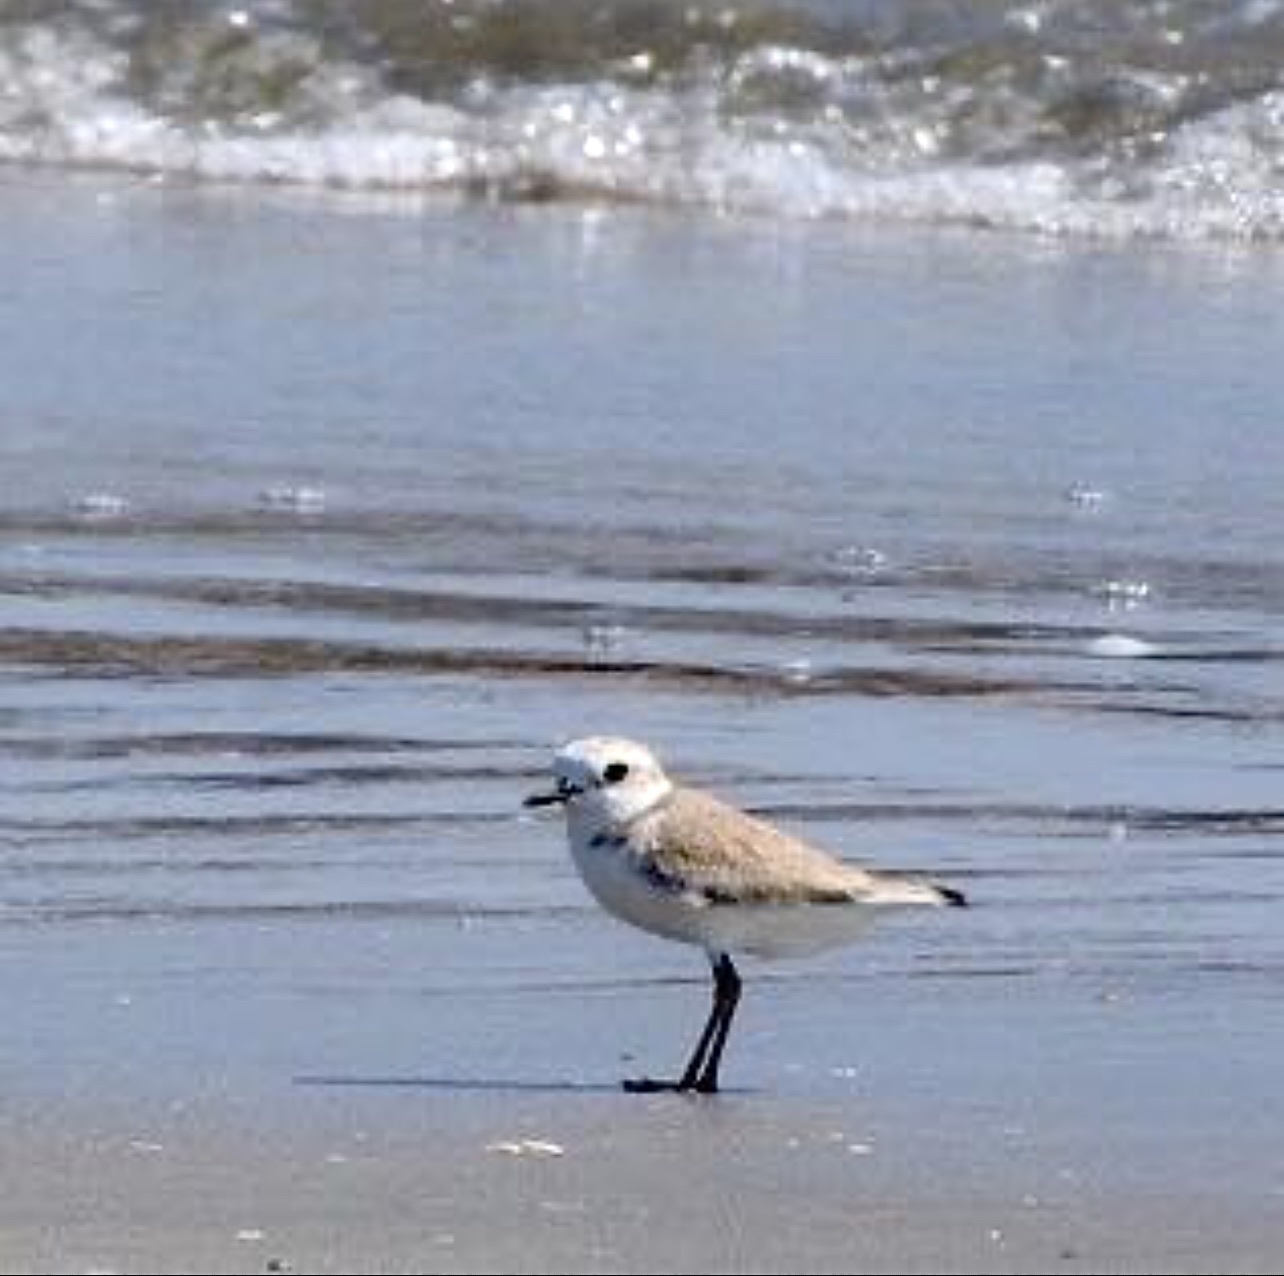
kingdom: Animalia
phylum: Chordata
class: Aves
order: Charadriiformes
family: Charadriidae
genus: Anarhynchus
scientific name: Anarhynchus
